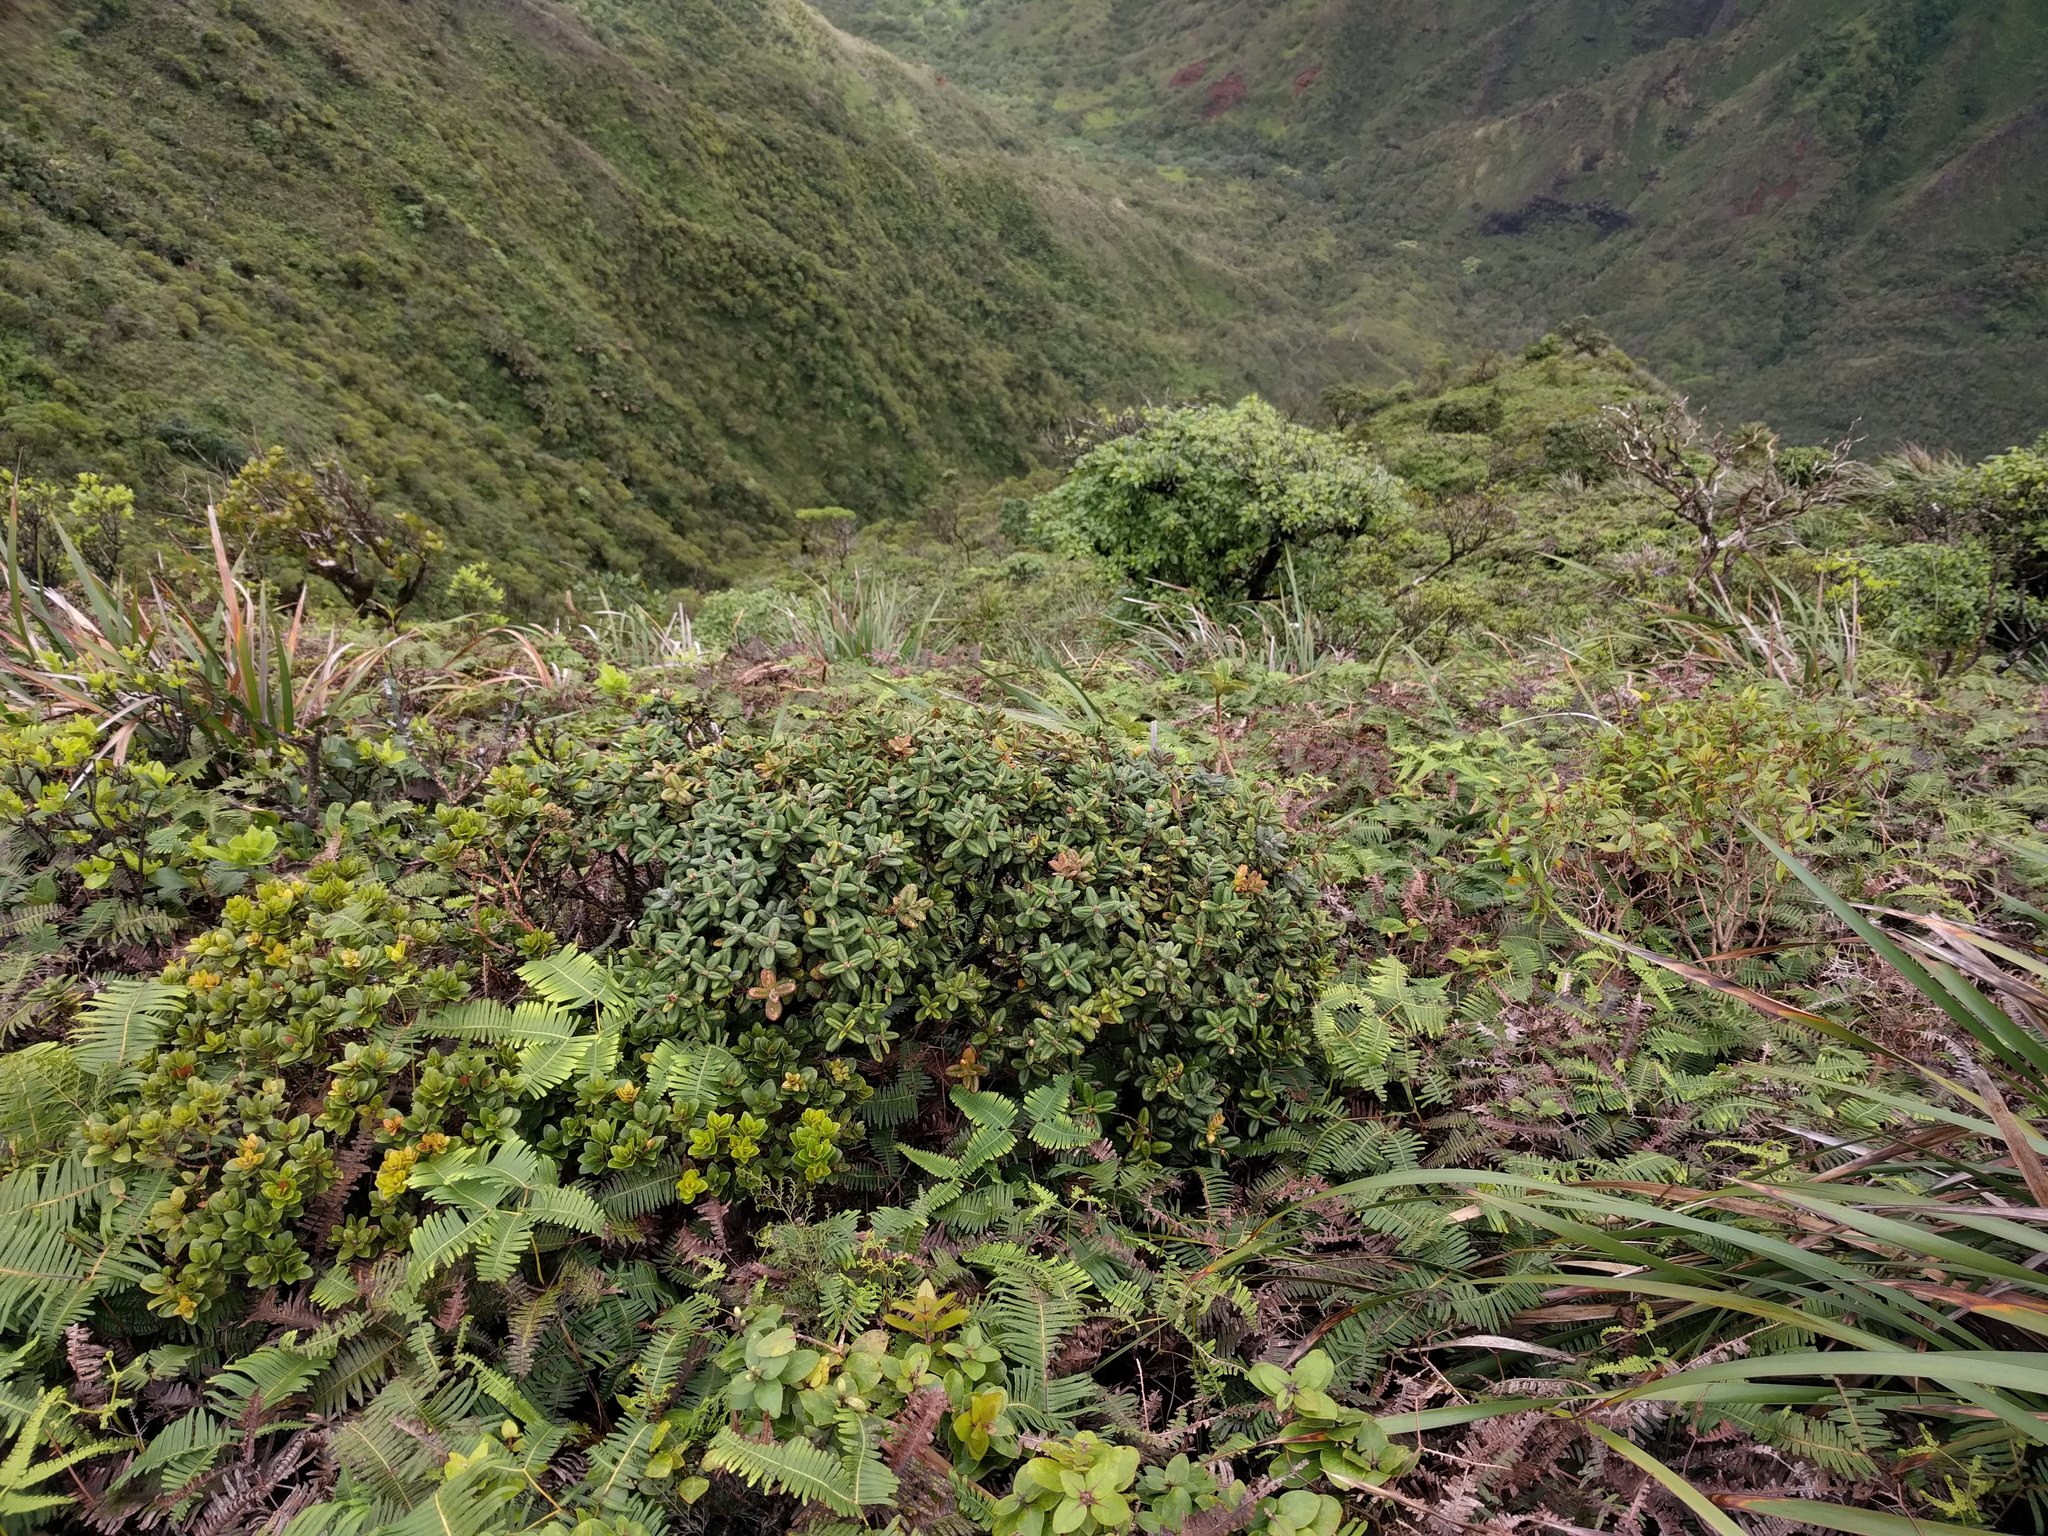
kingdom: Plantae
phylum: Tracheophyta
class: Magnoliopsida
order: Myrtales
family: Myrtaceae
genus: Metrosideros
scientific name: Metrosideros rugosa
